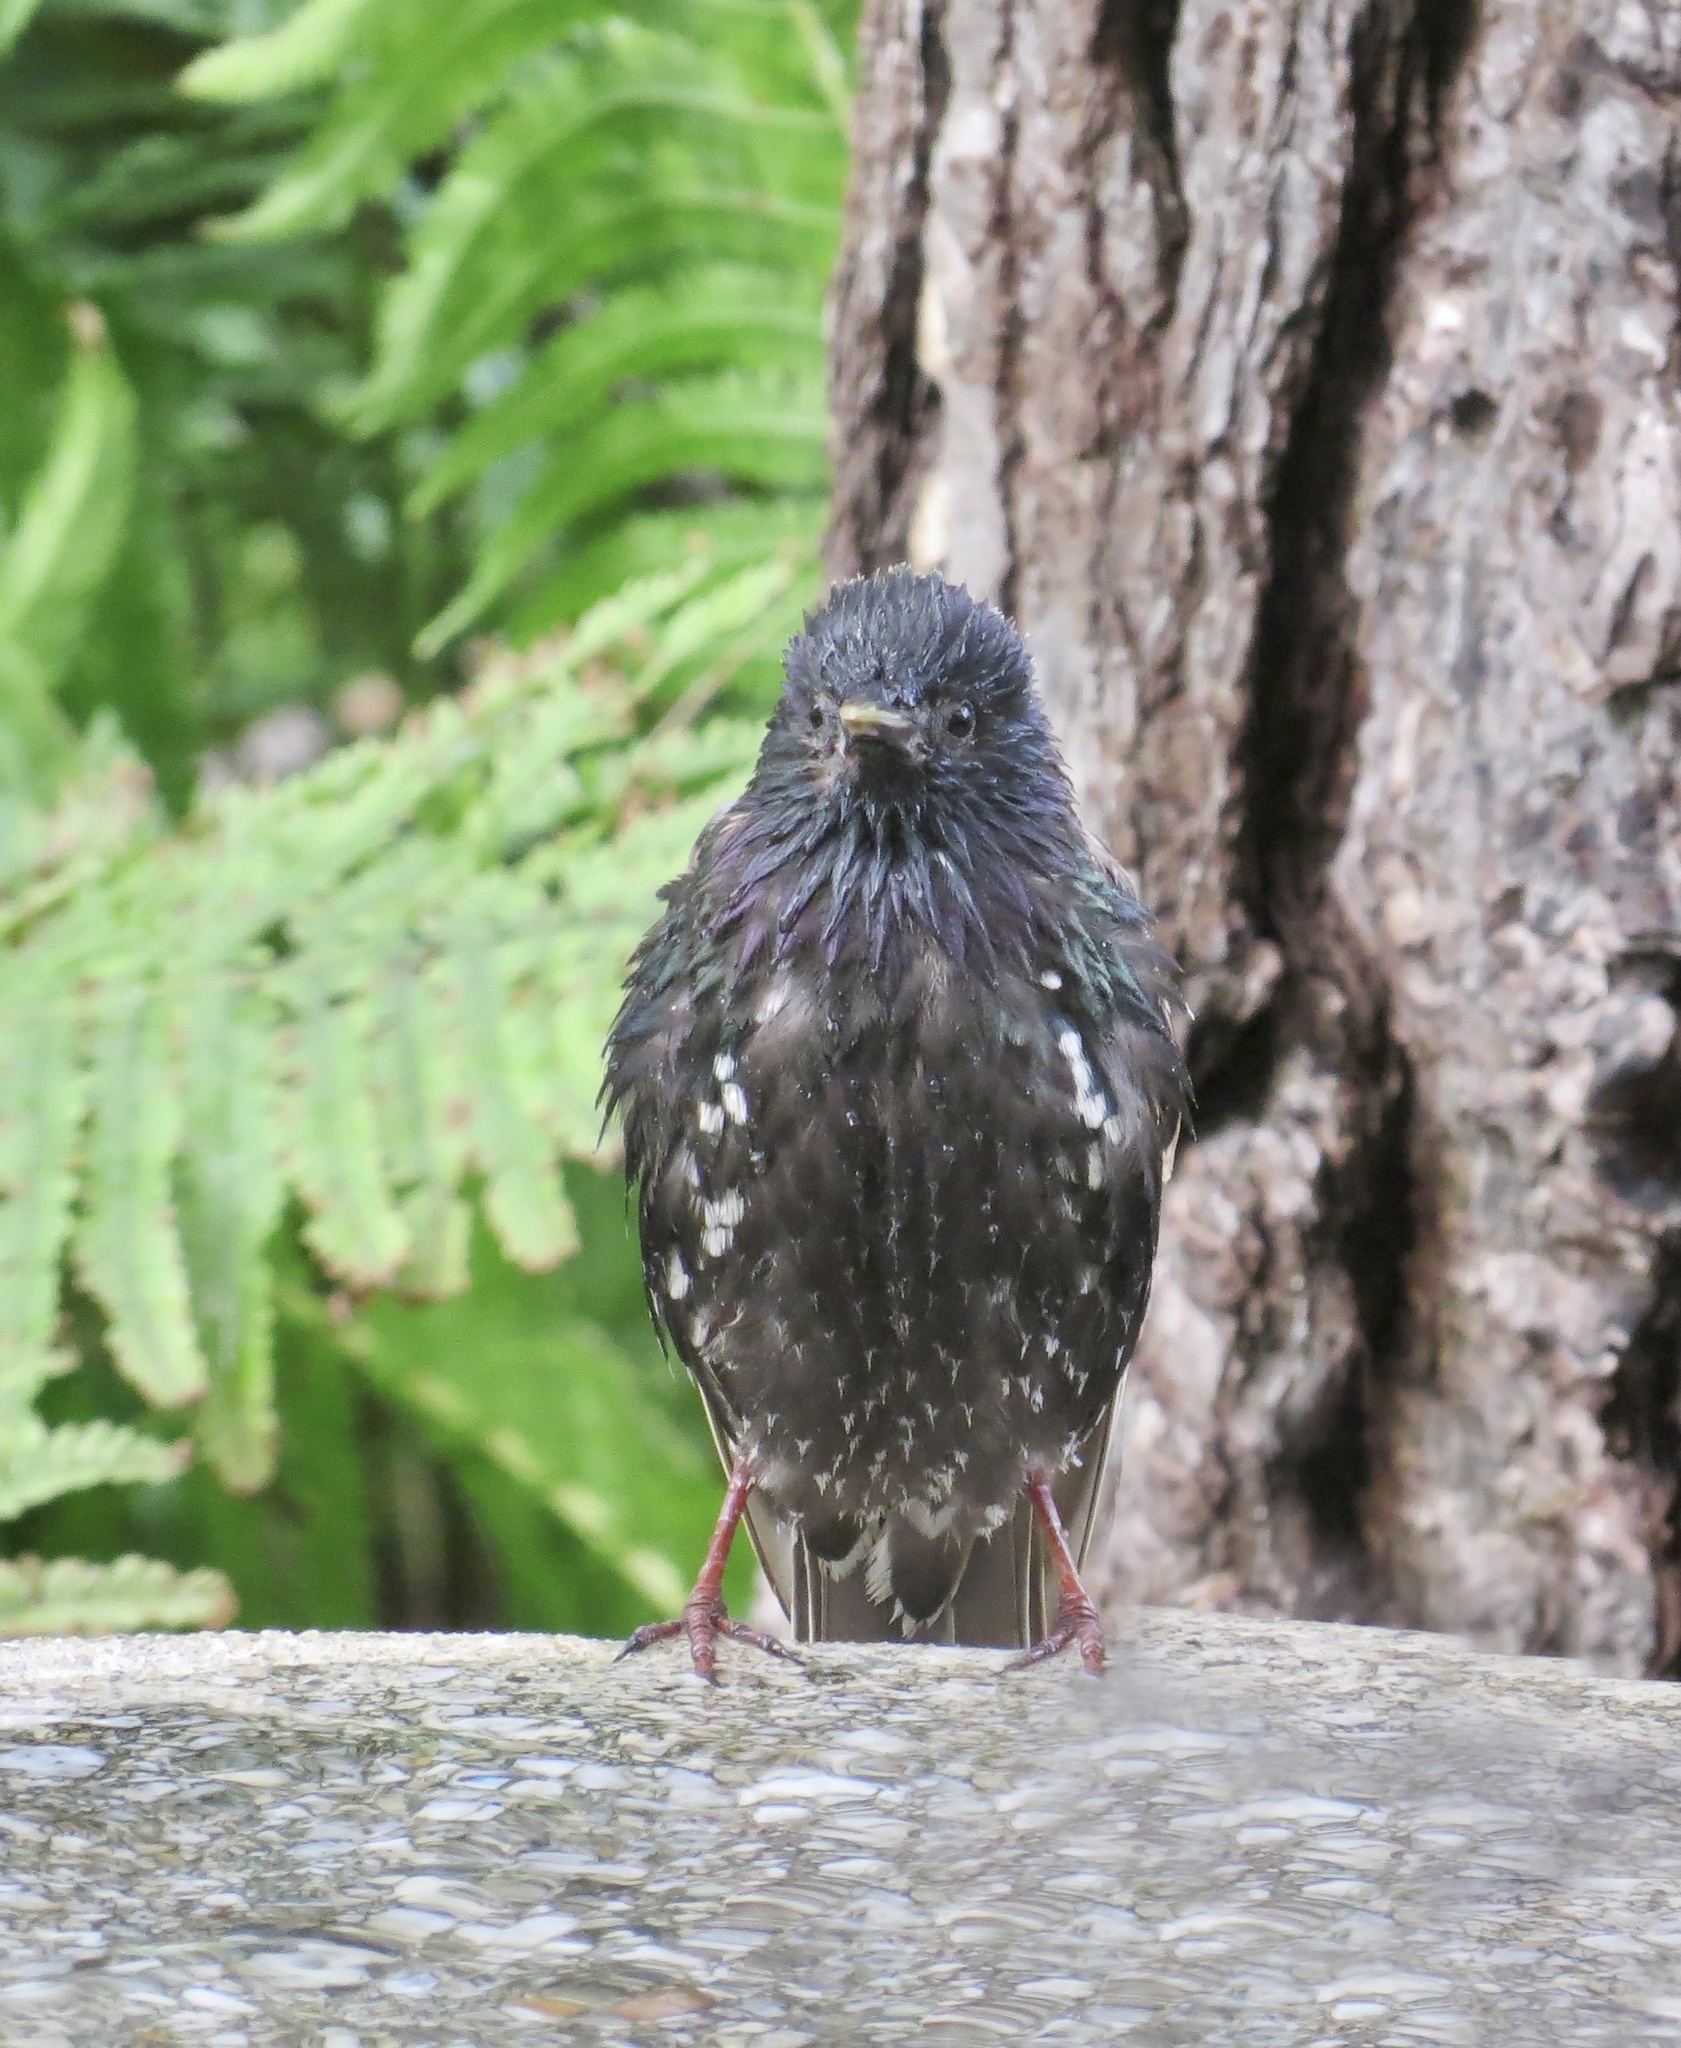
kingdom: Animalia
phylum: Chordata
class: Aves
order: Passeriformes
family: Sturnidae
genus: Sturnus
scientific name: Sturnus vulgaris
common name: Common starling
